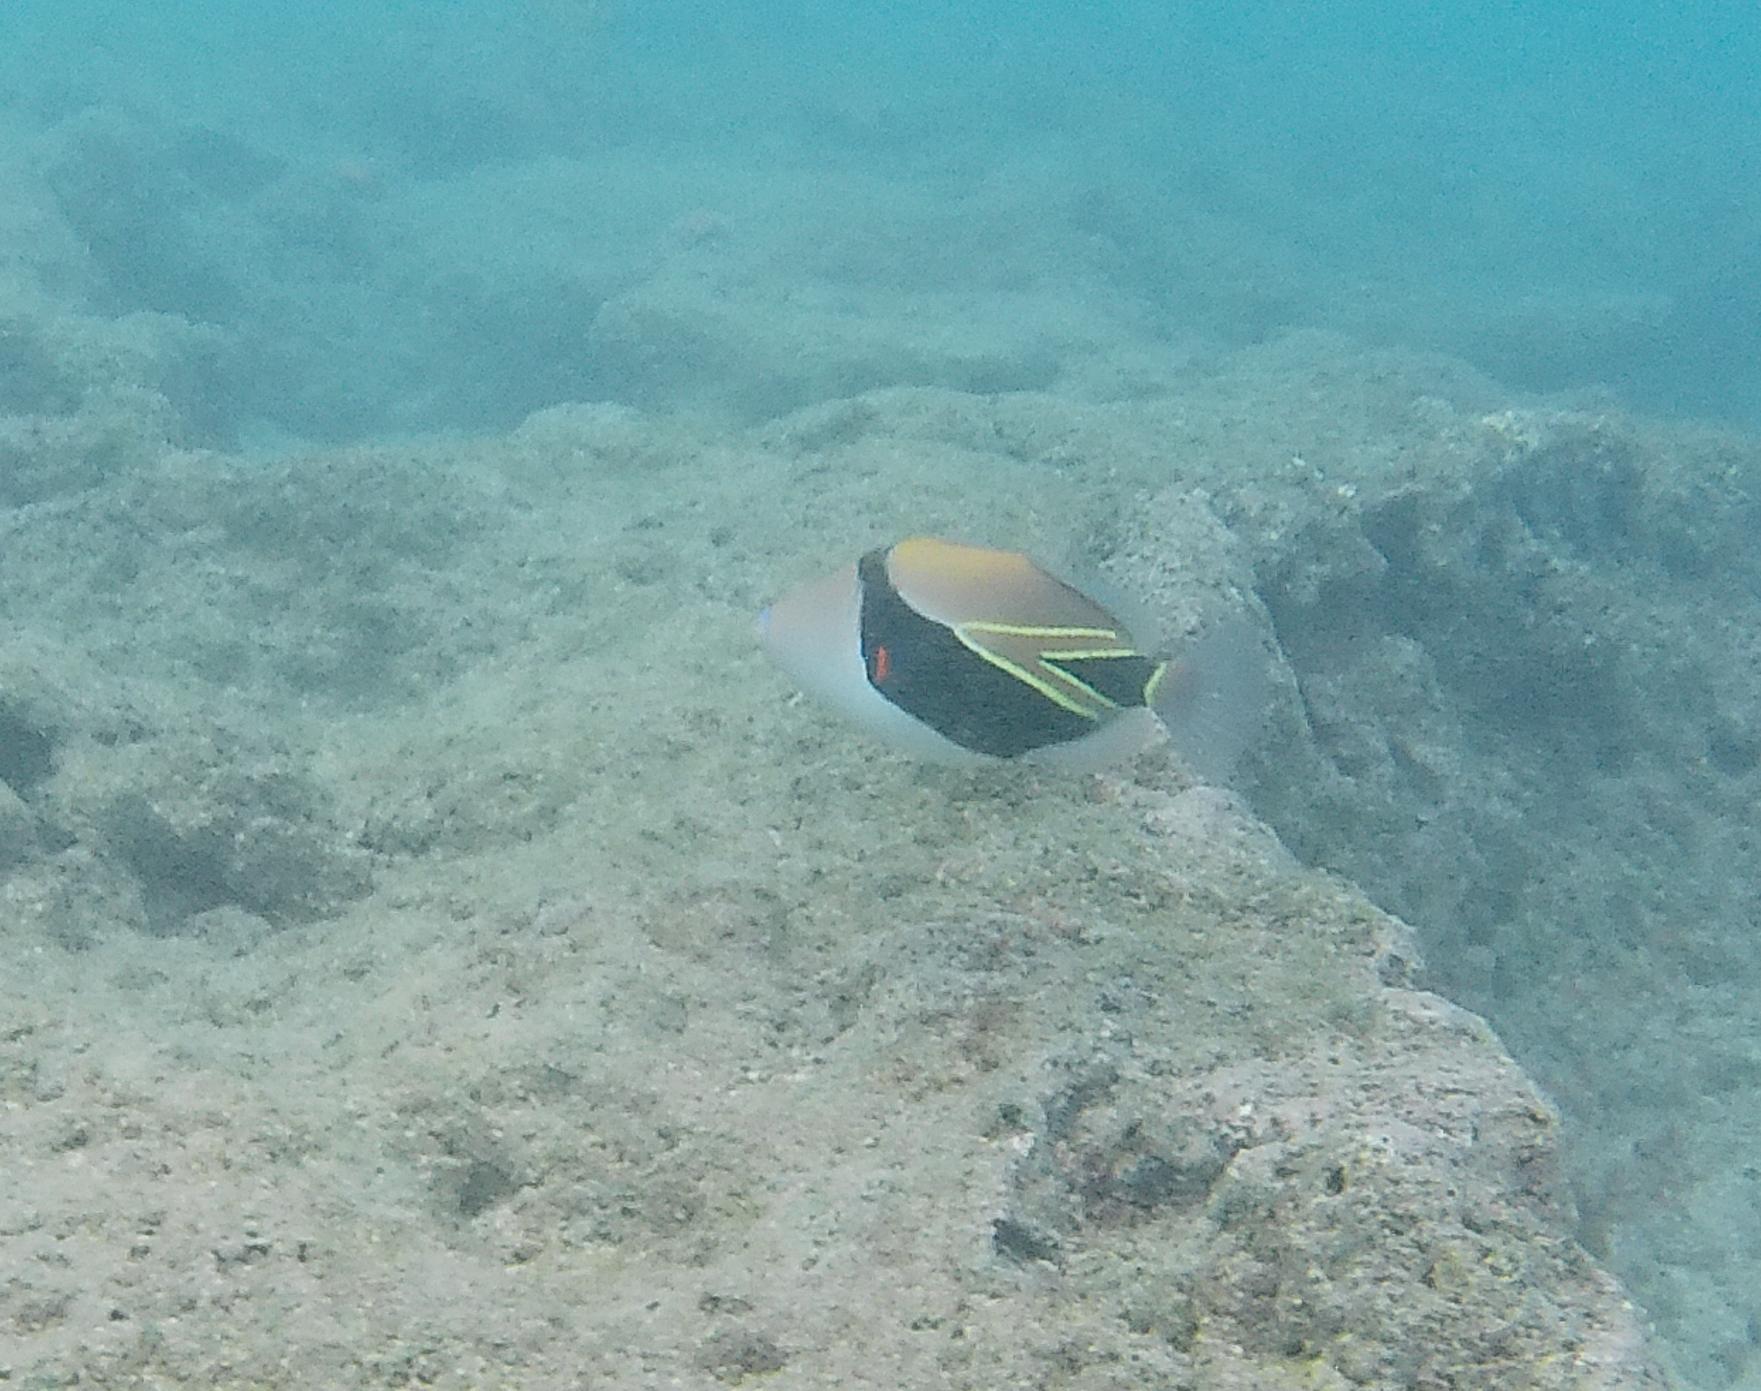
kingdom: Animalia
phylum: Chordata
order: Tetraodontiformes
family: Balistidae
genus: Rhinecanthus
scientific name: Rhinecanthus rectangulus
